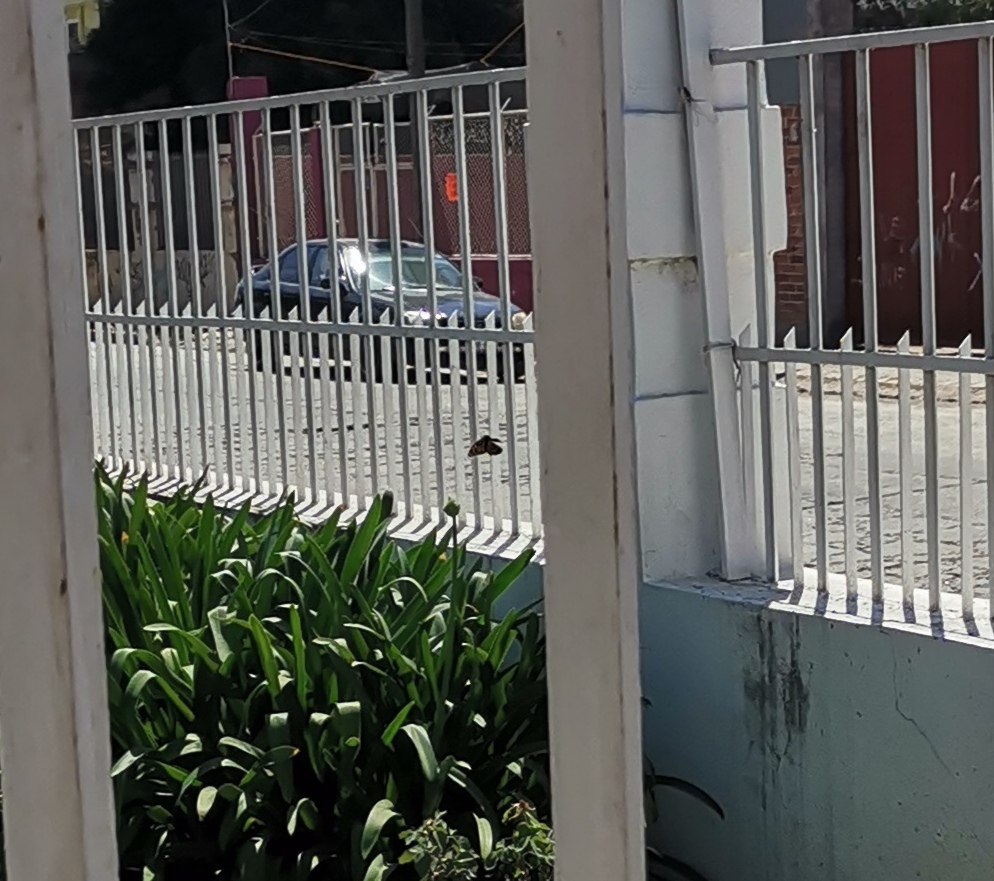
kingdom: Animalia
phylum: Arthropoda
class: Insecta
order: Lepidoptera
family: Nymphalidae
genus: Danaus
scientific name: Danaus plexippus
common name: Monarch
